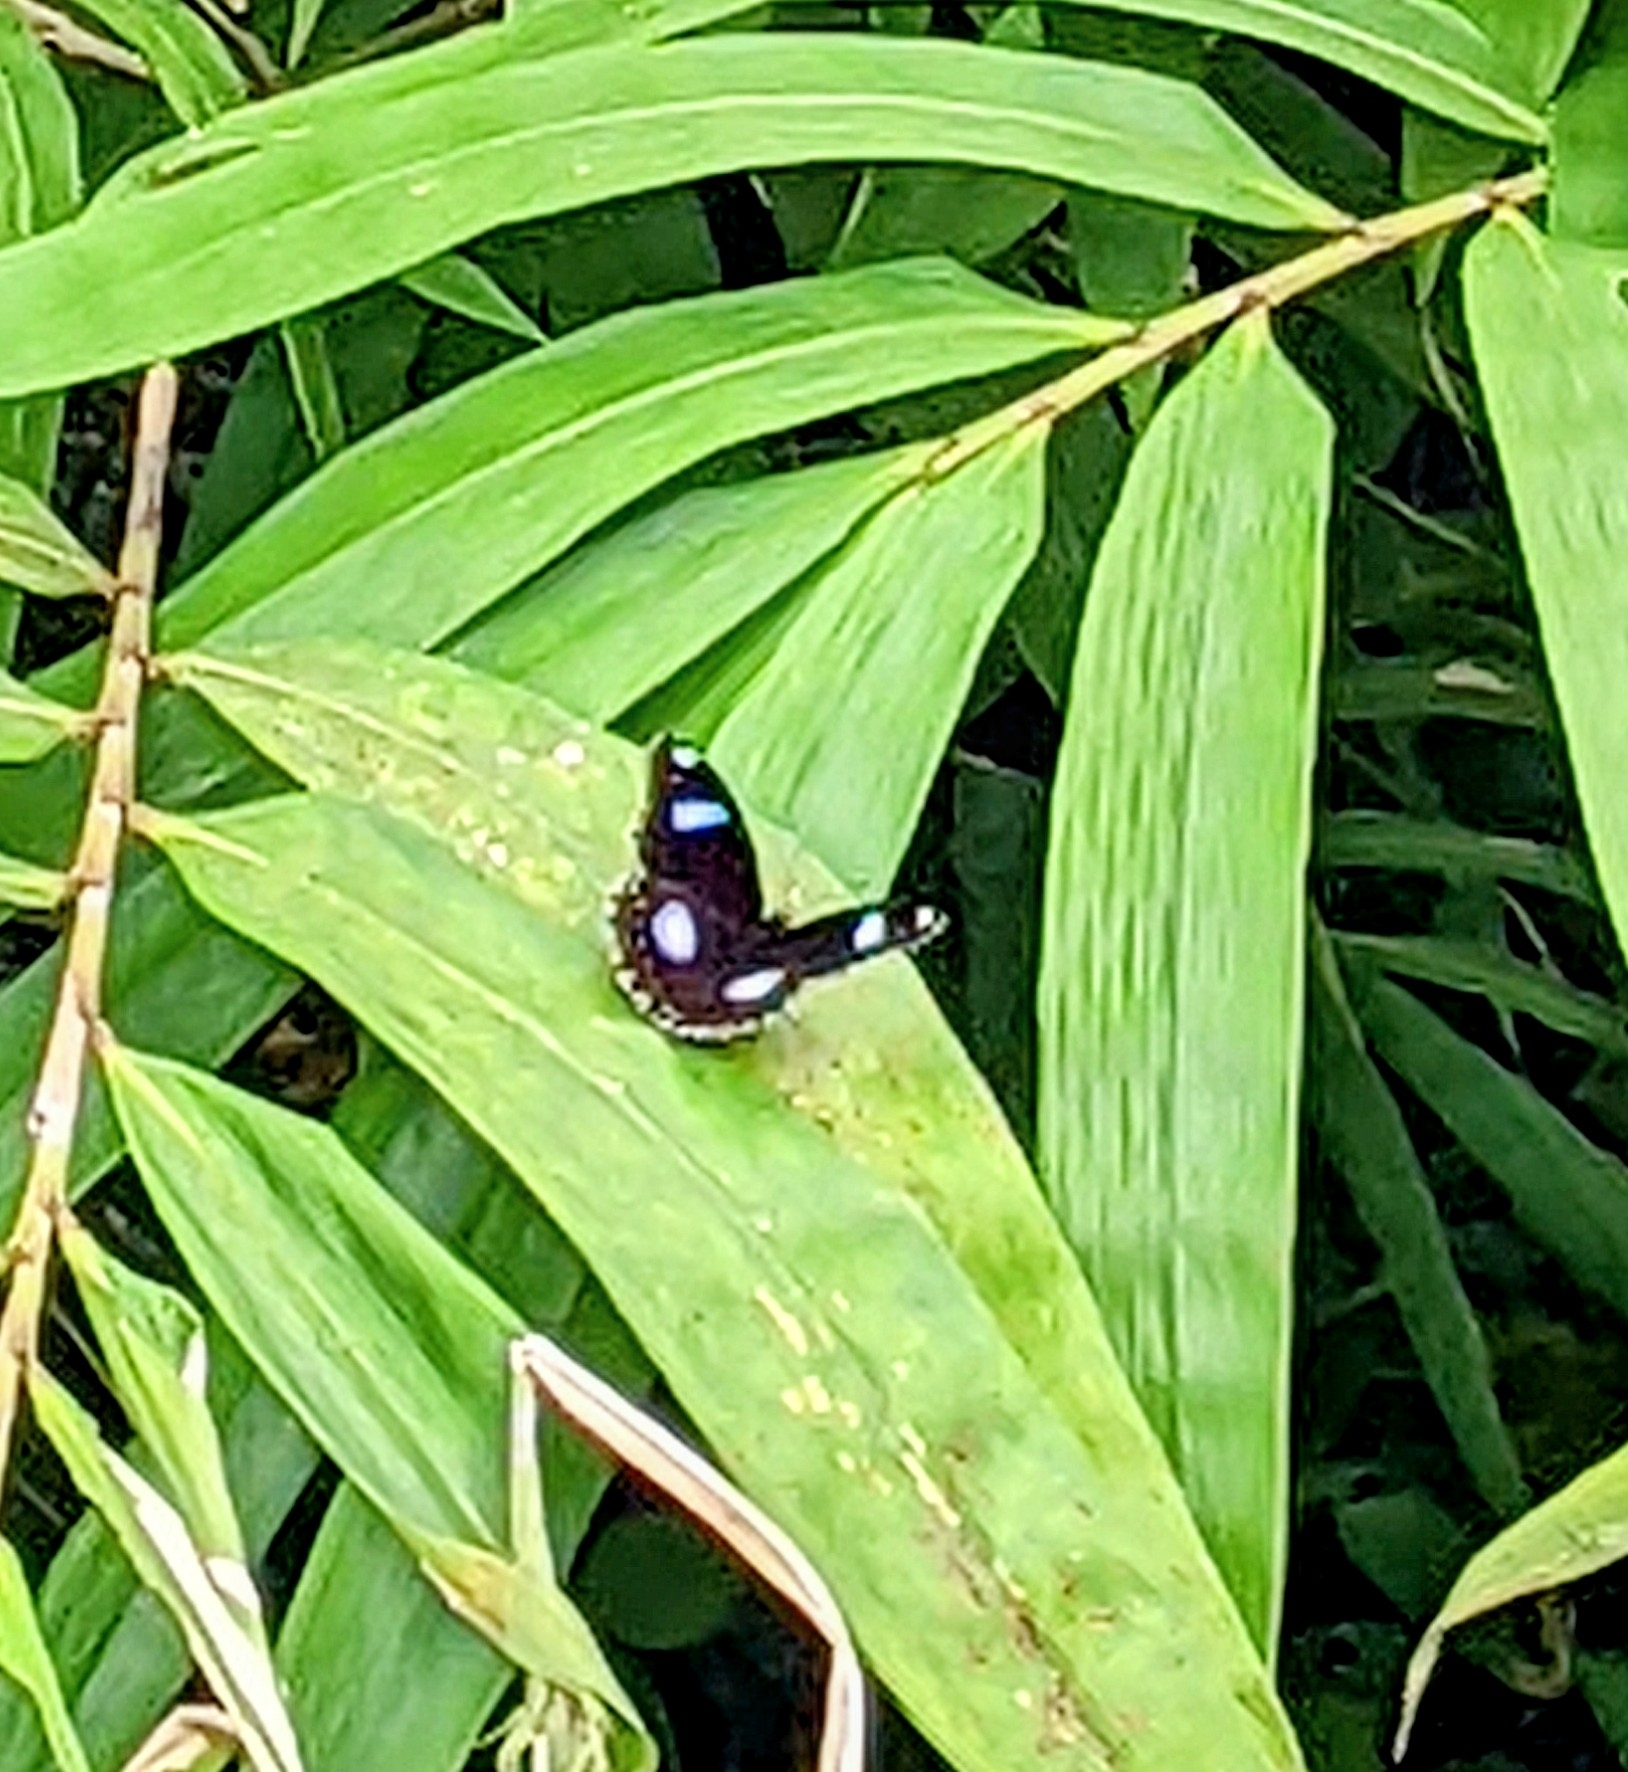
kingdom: Animalia
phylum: Arthropoda
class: Insecta
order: Lepidoptera
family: Nymphalidae
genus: Hypolimnas
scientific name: Hypolimnas bolina
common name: Great eggfly
